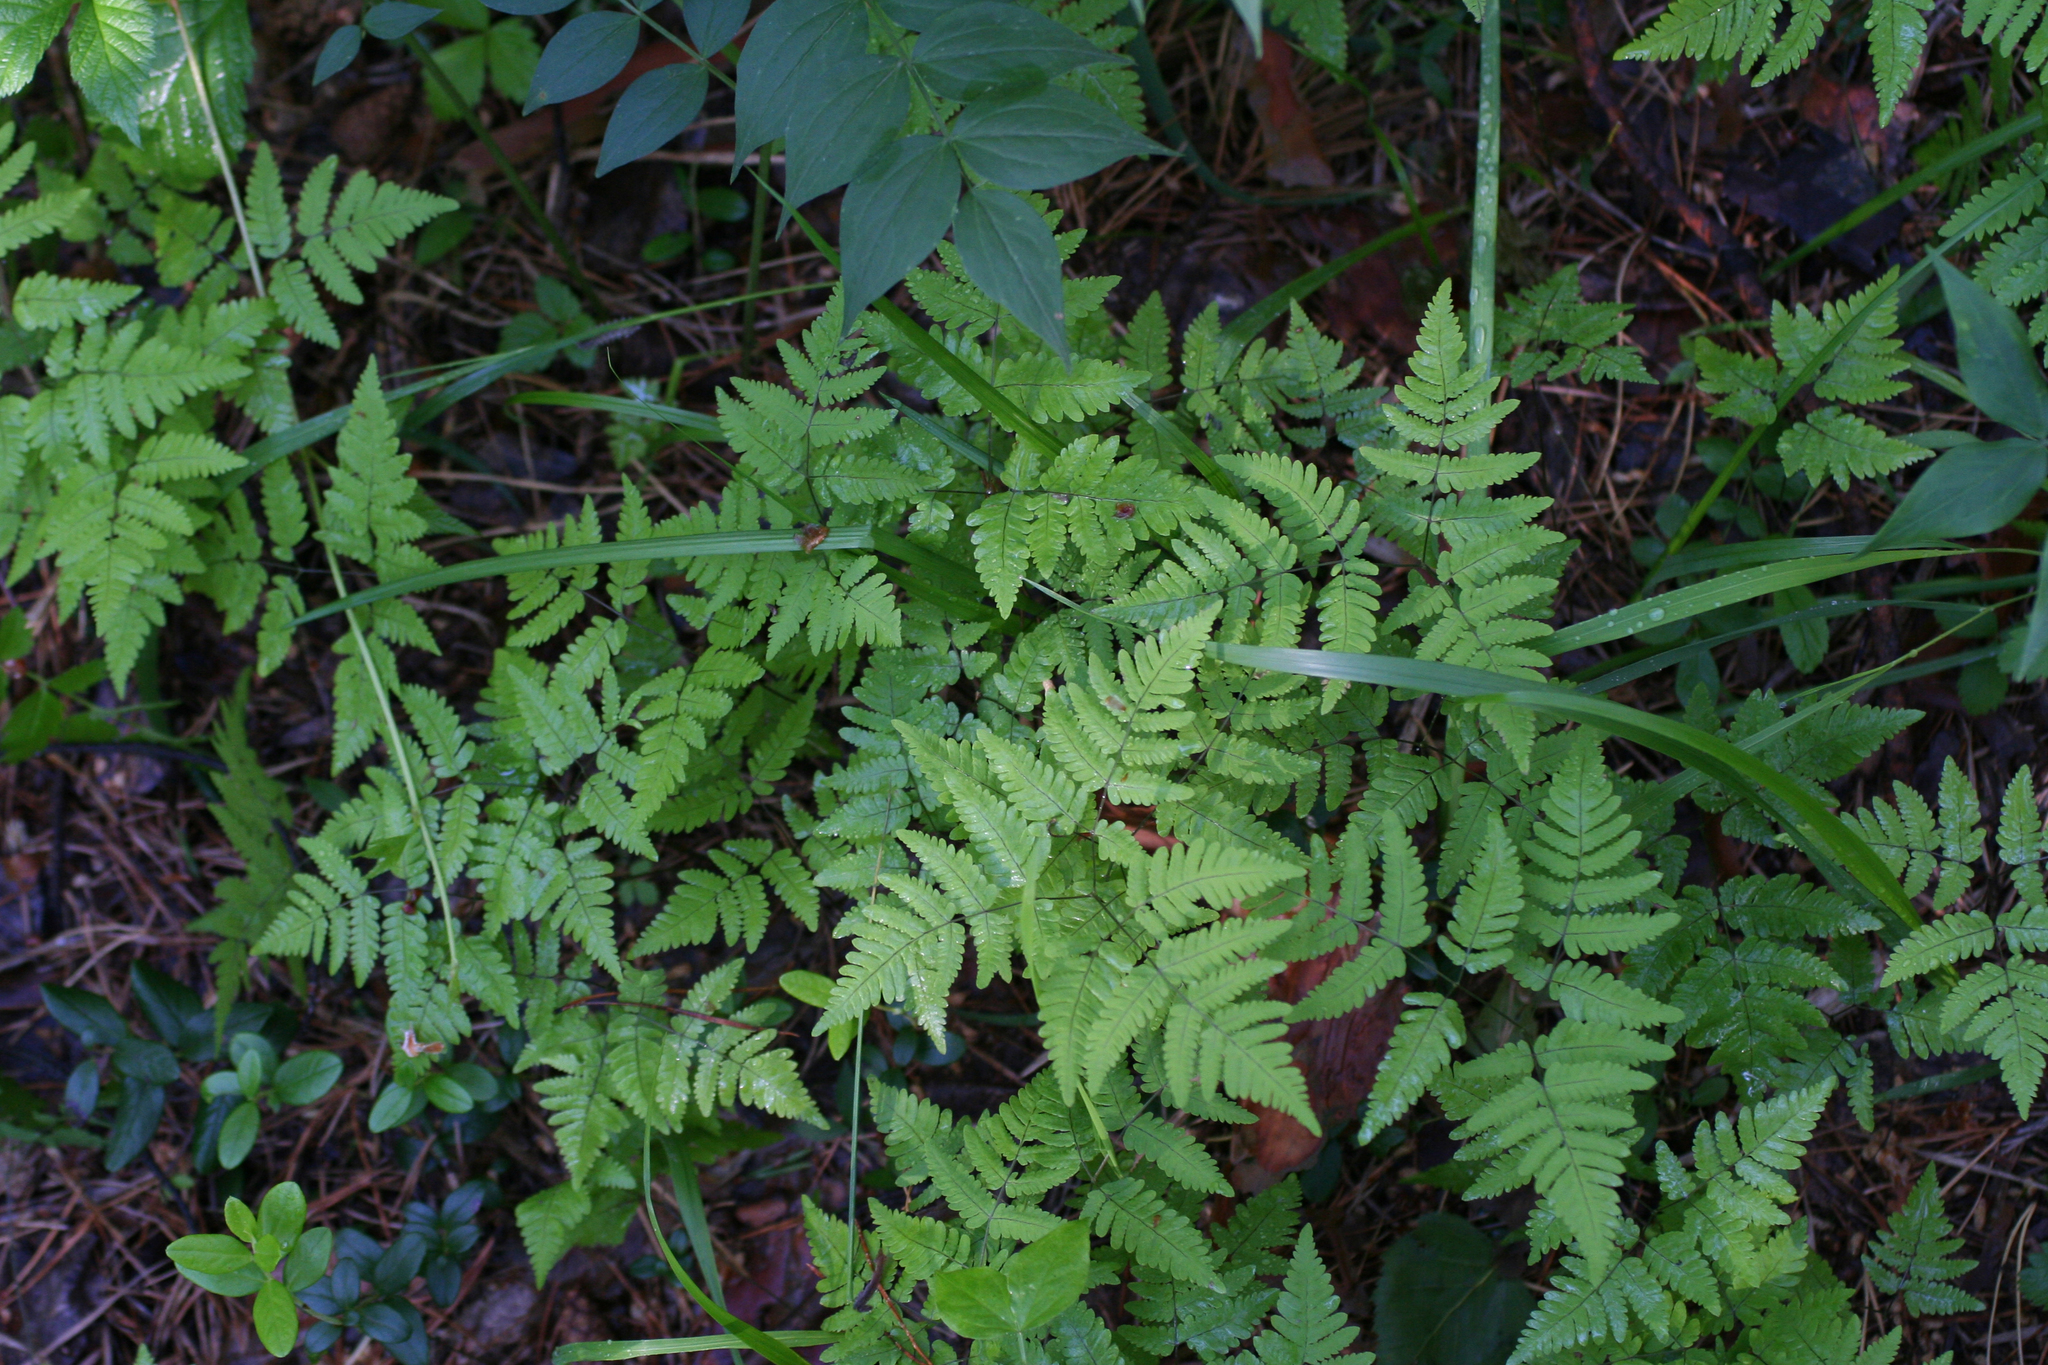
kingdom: Plantae
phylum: Tracheophyta
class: Polypodiopsida
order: Polypodiales
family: Cystopteridaceae
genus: Gymnocarpium
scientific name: Gymnocarpium dryopteris
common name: Oak fern
